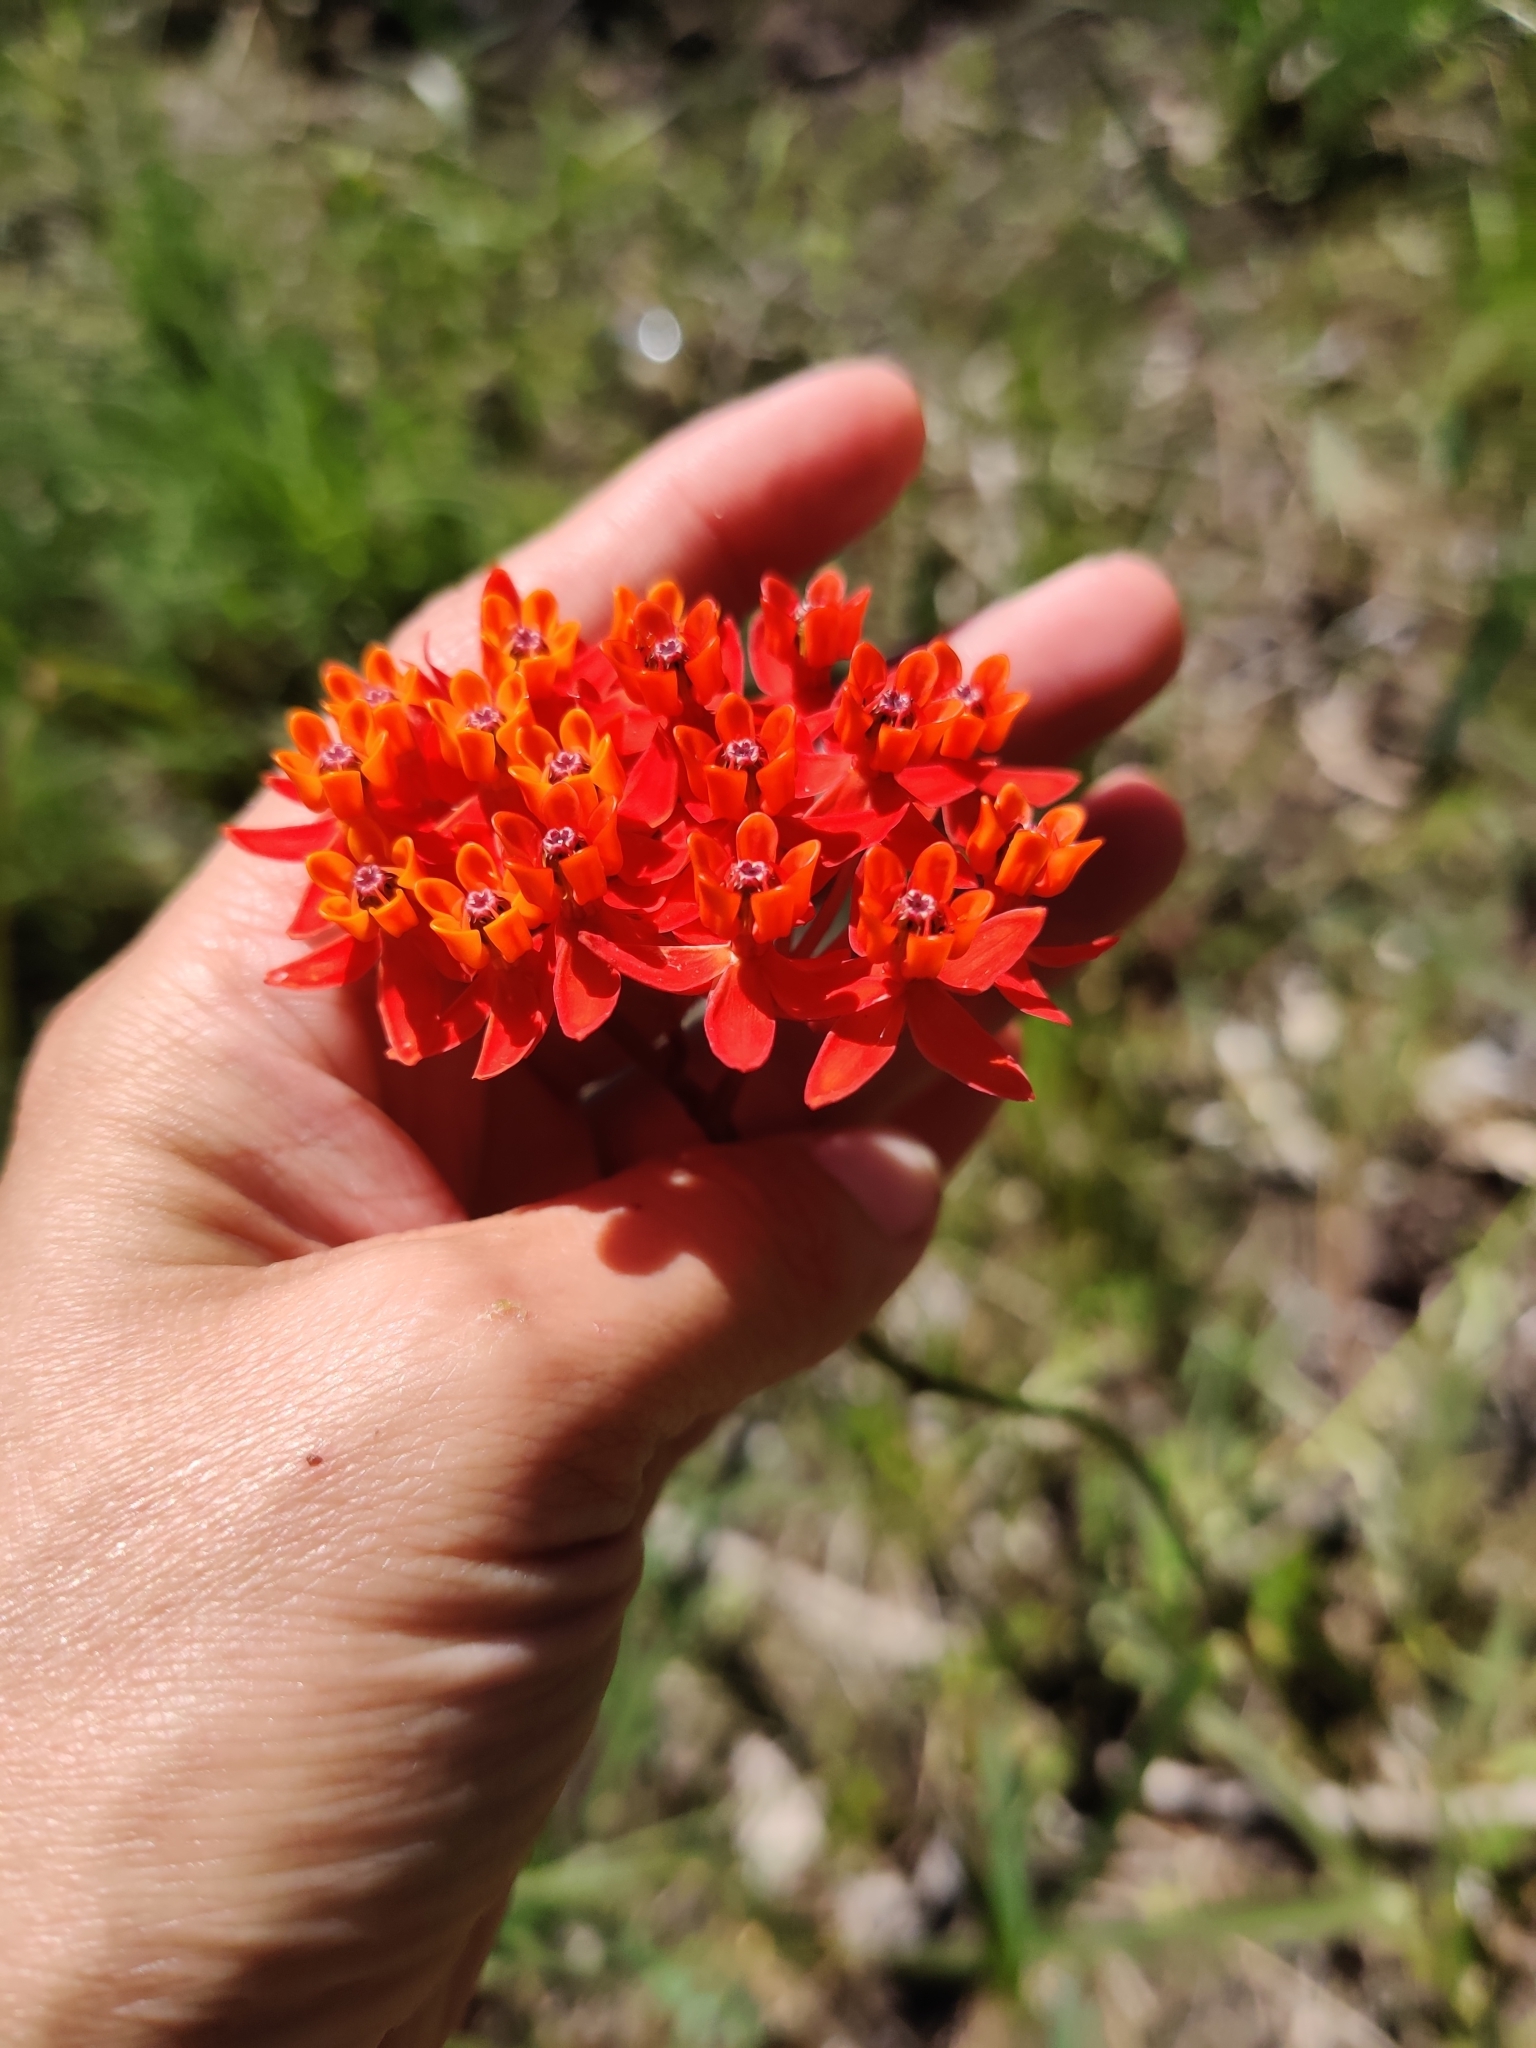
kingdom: Plantae
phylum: Tracheophyta
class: Magnoliopsida
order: Gentianales
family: Apocynaceae
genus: Asclepias
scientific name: Asclepias lanceolata
